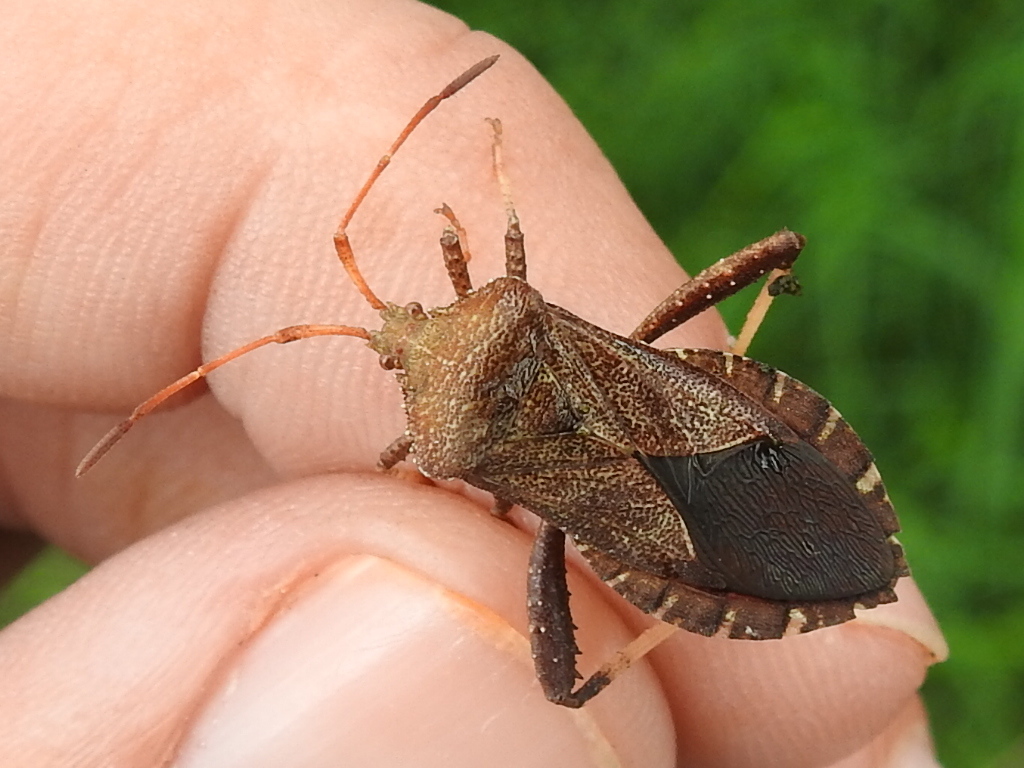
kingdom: Animalia
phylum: Arthropoda
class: Insecta
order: Hemiptera
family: Coreidae
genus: Euthochtha
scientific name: Euthochtha galeator
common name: Helmeted squash bug
